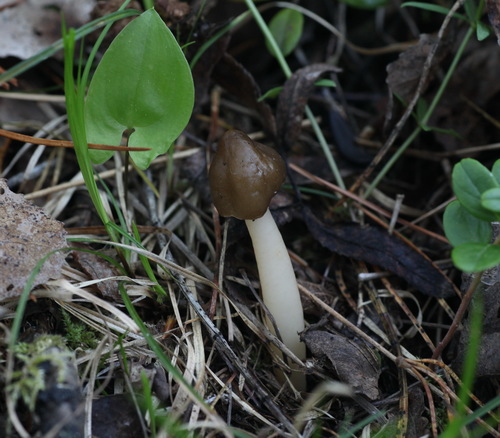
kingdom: Fungi
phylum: Ascomycota
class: Pezizomycetes
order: Pezizales
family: Morchellaceae
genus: Verpa
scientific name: Verpa conica
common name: Thimble morel
